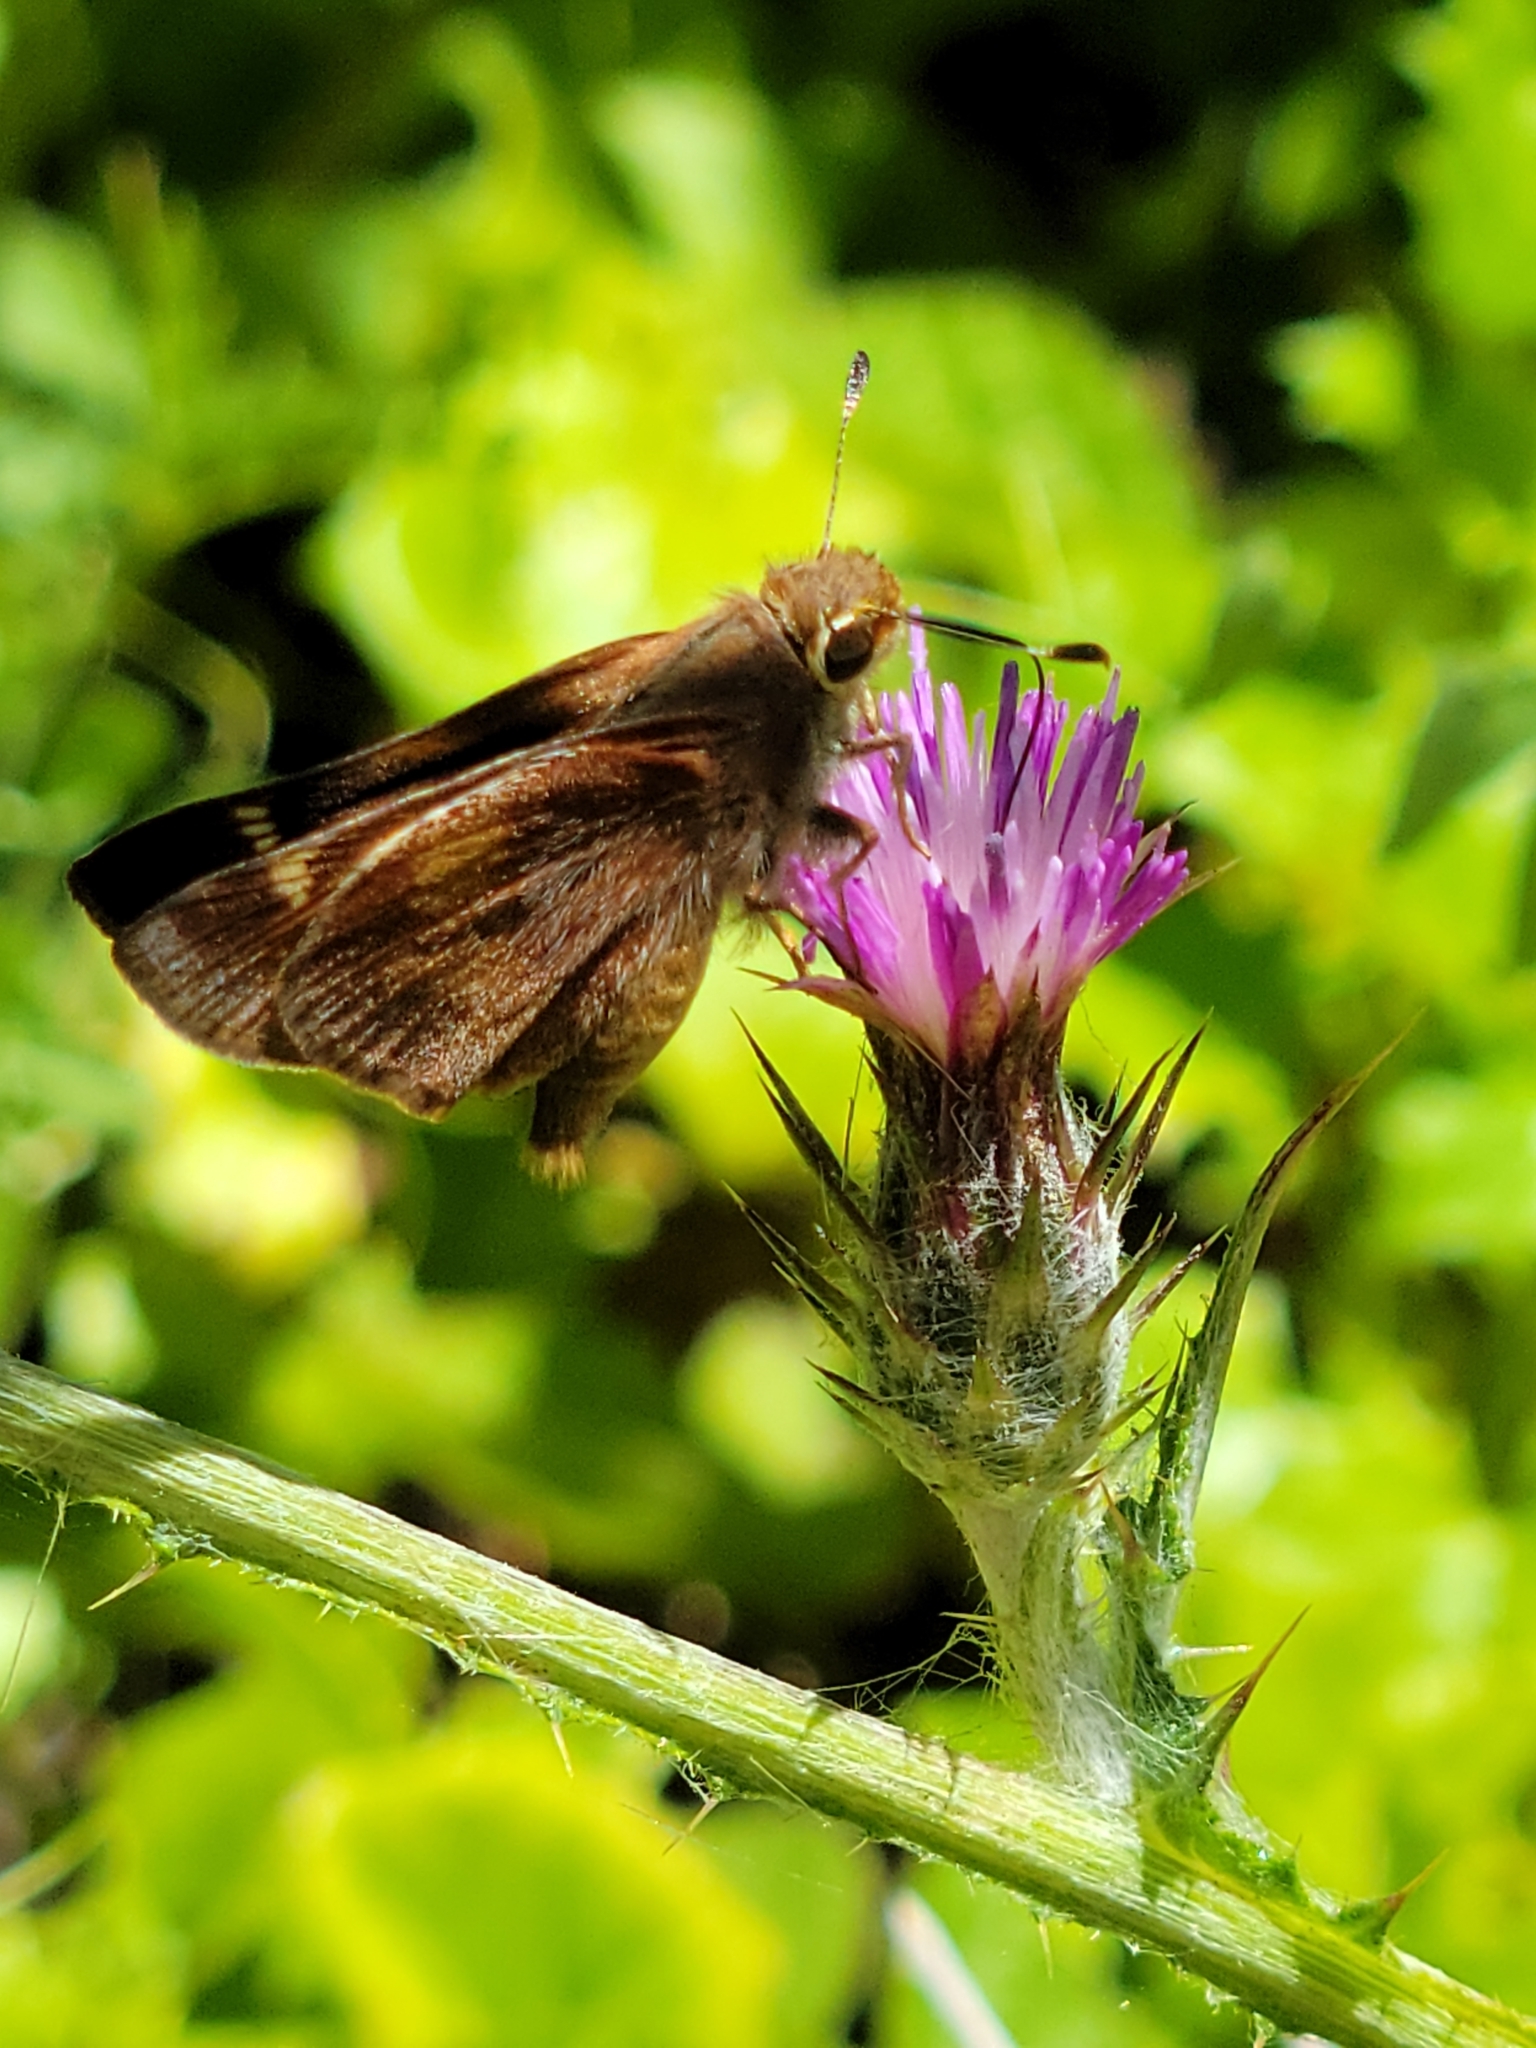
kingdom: Animalia
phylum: Arthropoda
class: Insecta
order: Lepidoptera
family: Hesperiidae
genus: Lon
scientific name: Lon melane
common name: Umber skipper
